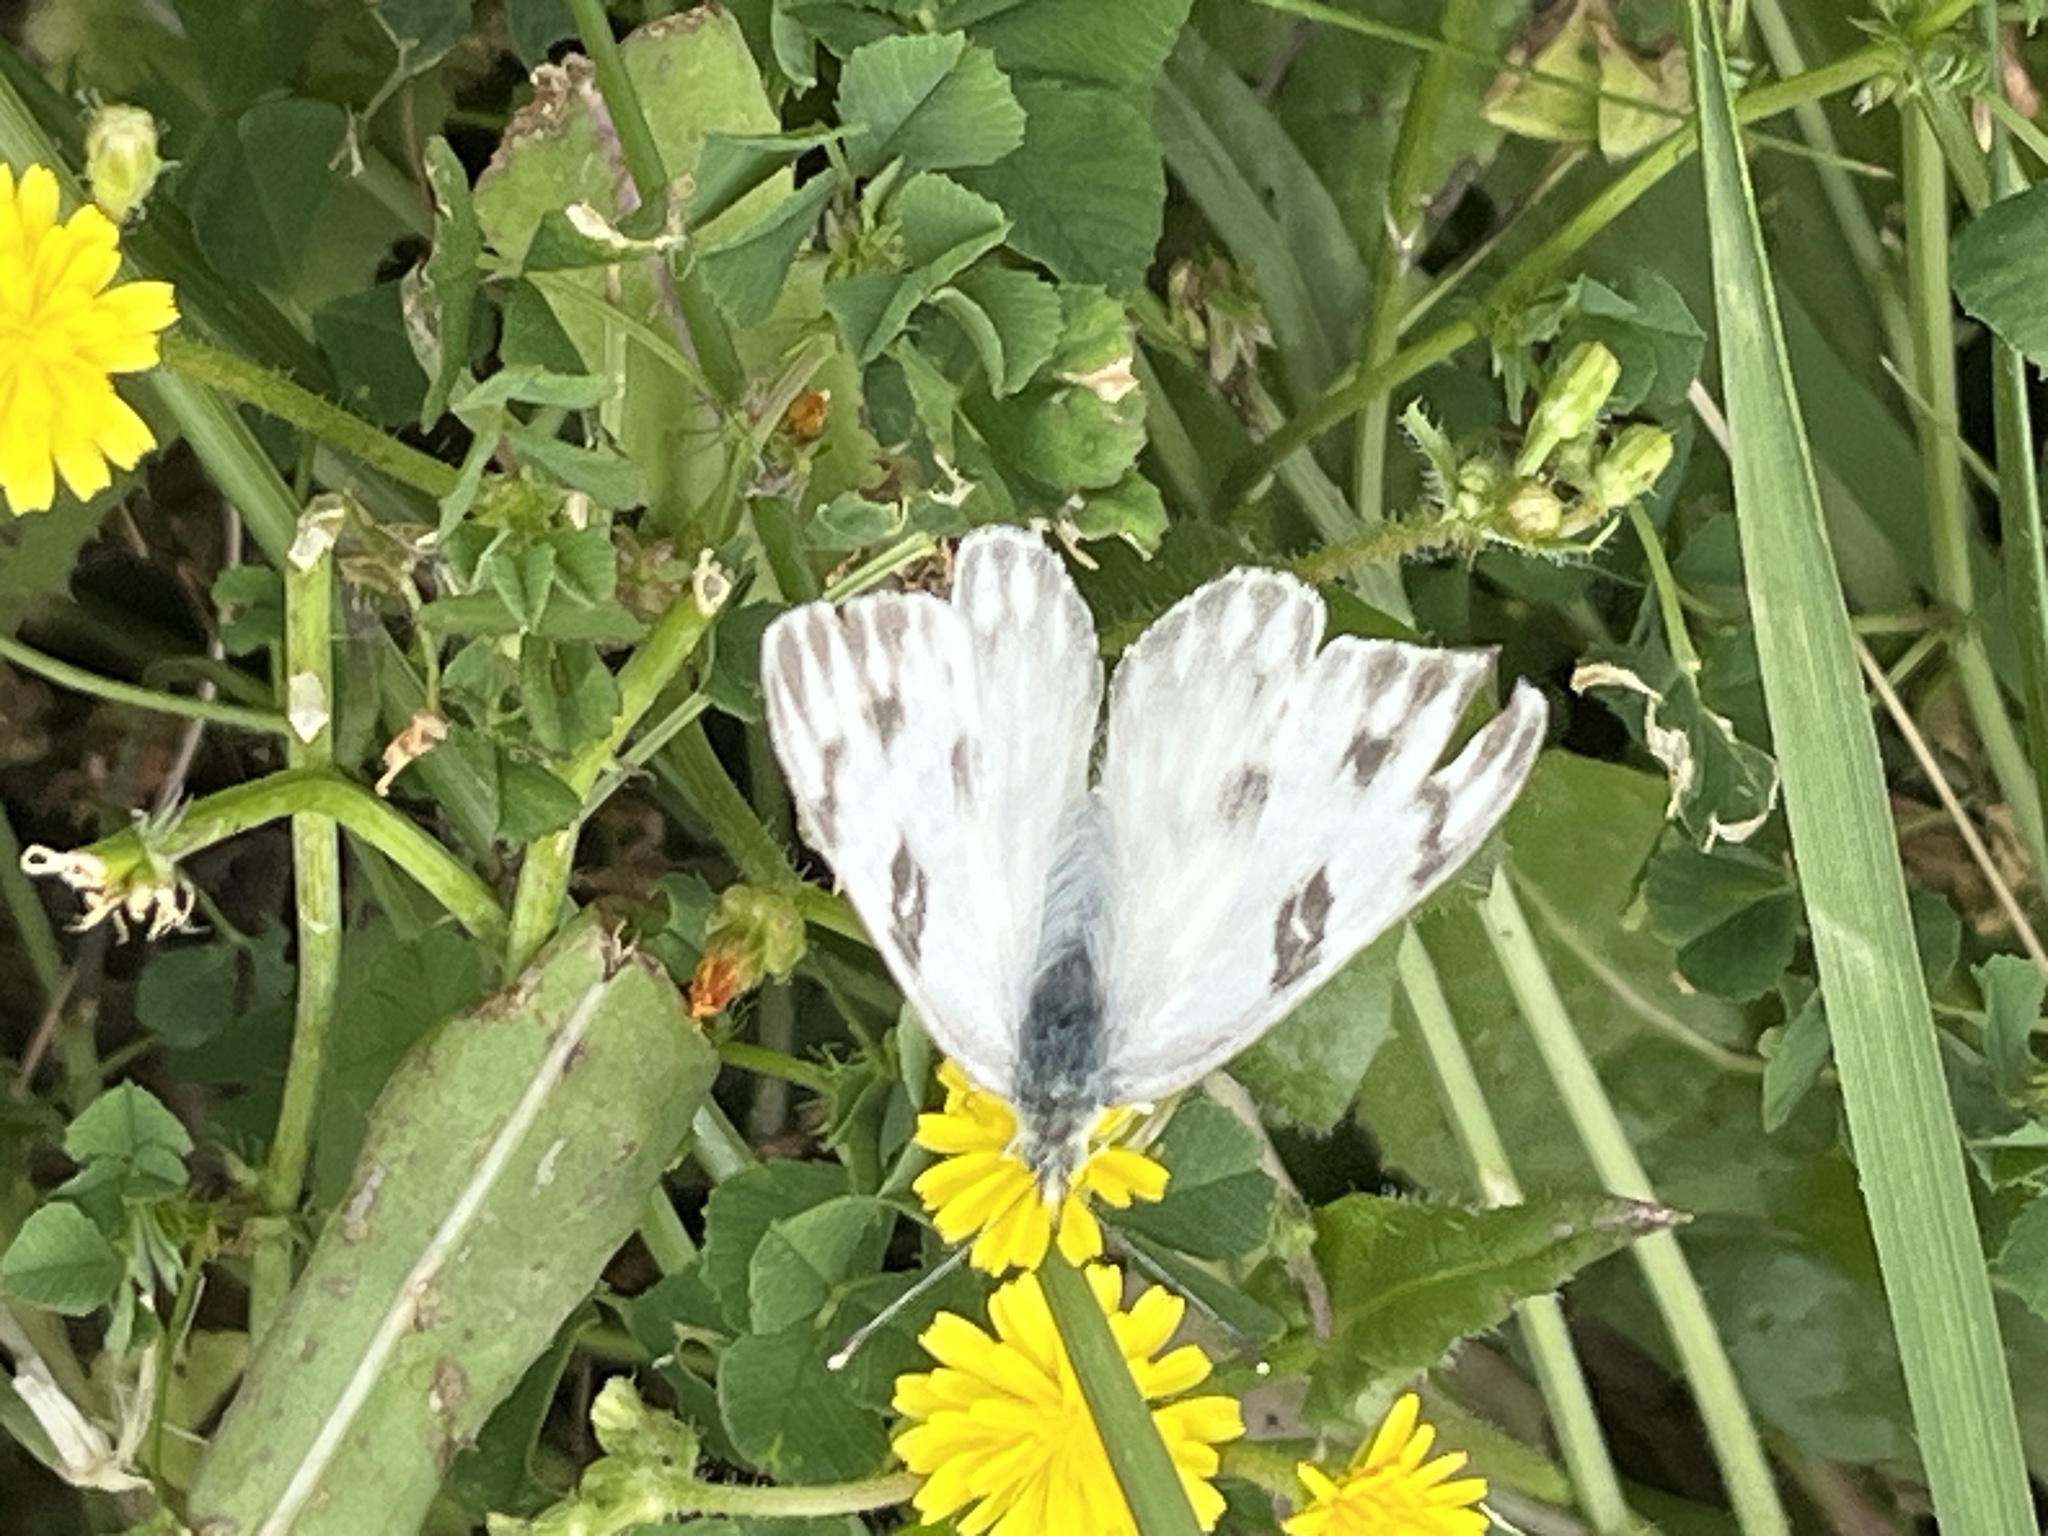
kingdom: Animalia
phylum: Arthropoda
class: Insecta
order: Lepidoptera
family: Pieridae
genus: Pontia
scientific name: Pontia protodice
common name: Checkered white
